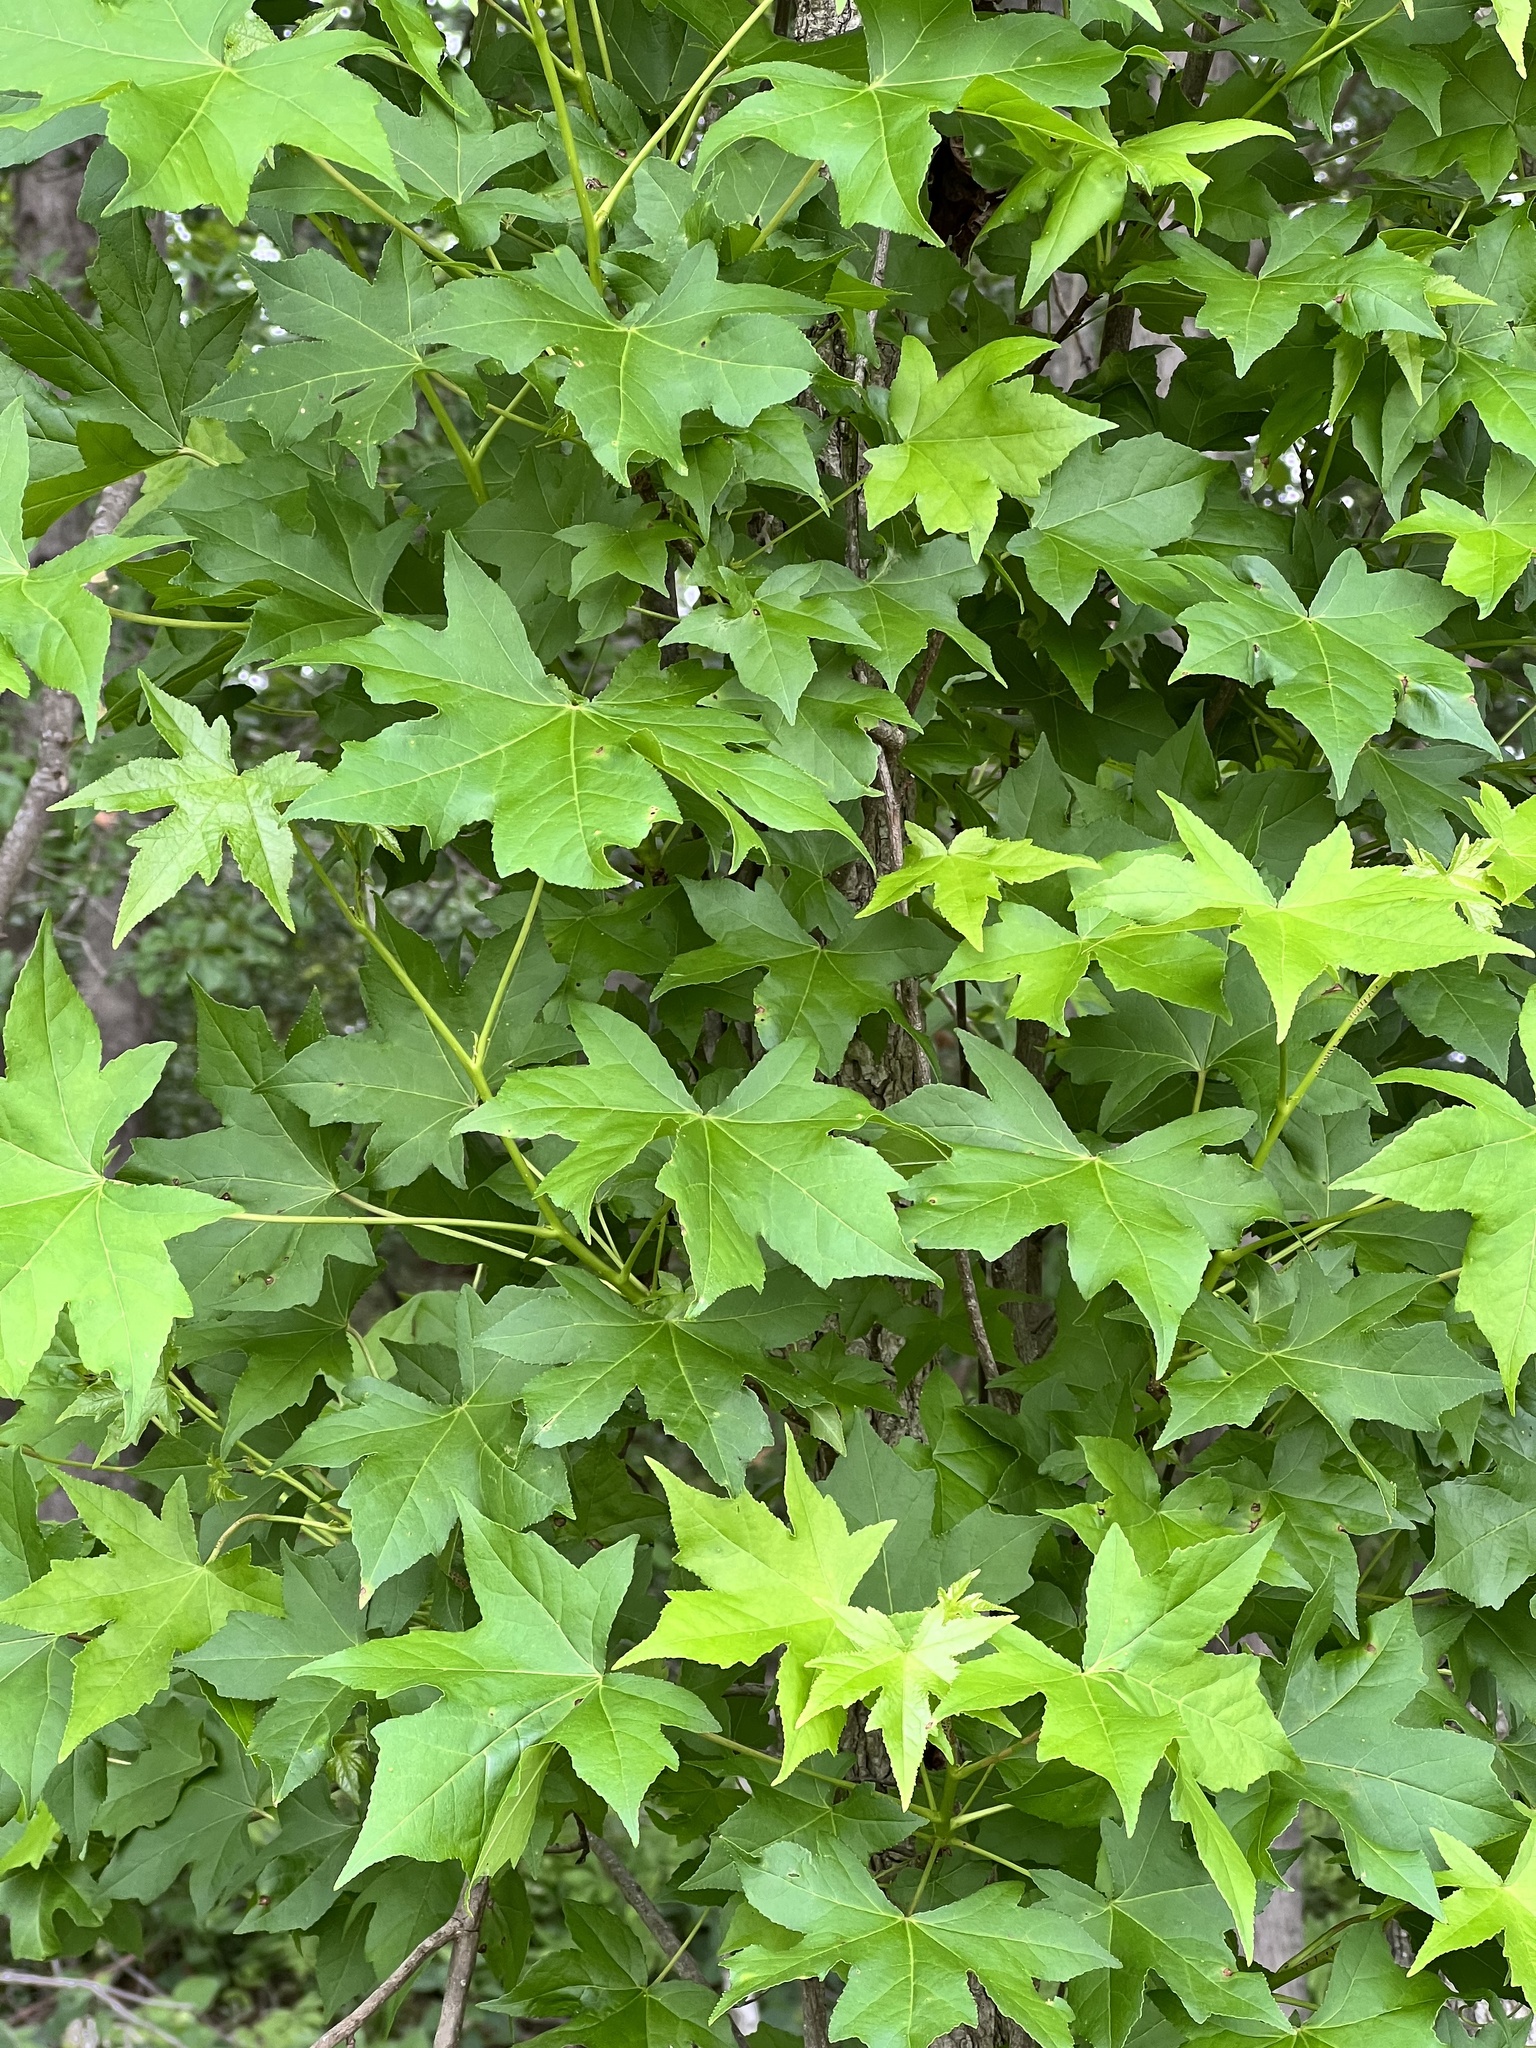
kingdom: Plantae
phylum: Tracheophyta
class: Magnoliopsida
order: Saxifragales
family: Altingiaceae
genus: Liquidambar
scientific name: Liquidambar styraciflua
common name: Sweet gum
